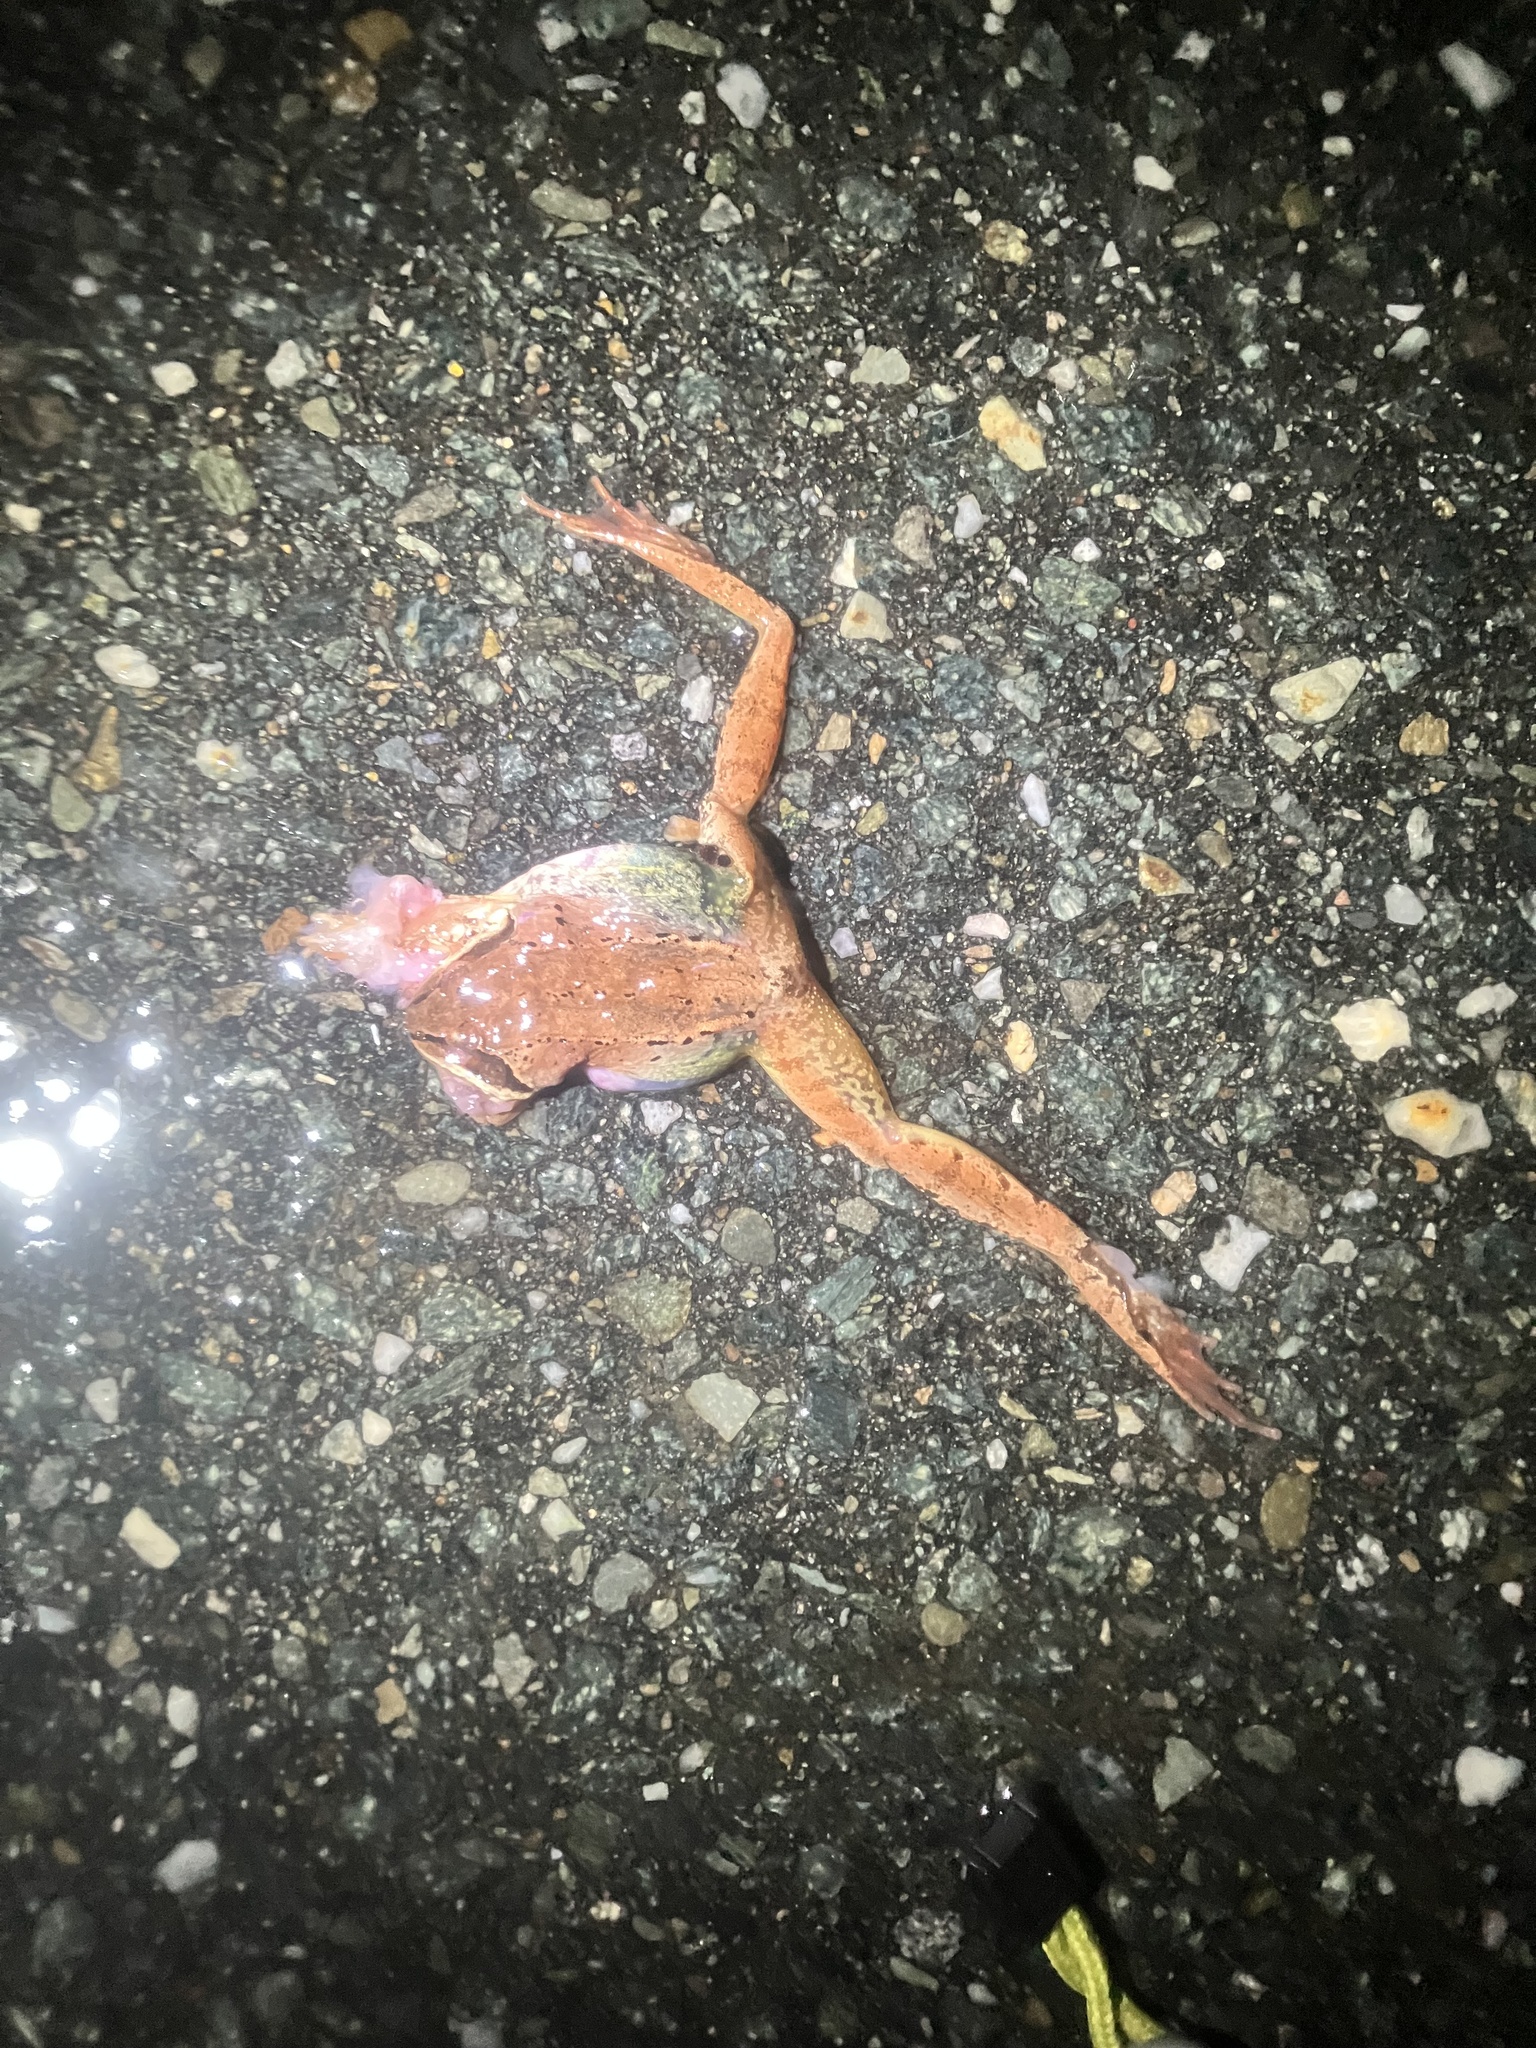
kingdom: Animalia
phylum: Chordata
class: Amphibia
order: Anura
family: Ranidae
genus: Lithobates
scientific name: Lithobates sylvaticus
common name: Wood frog
